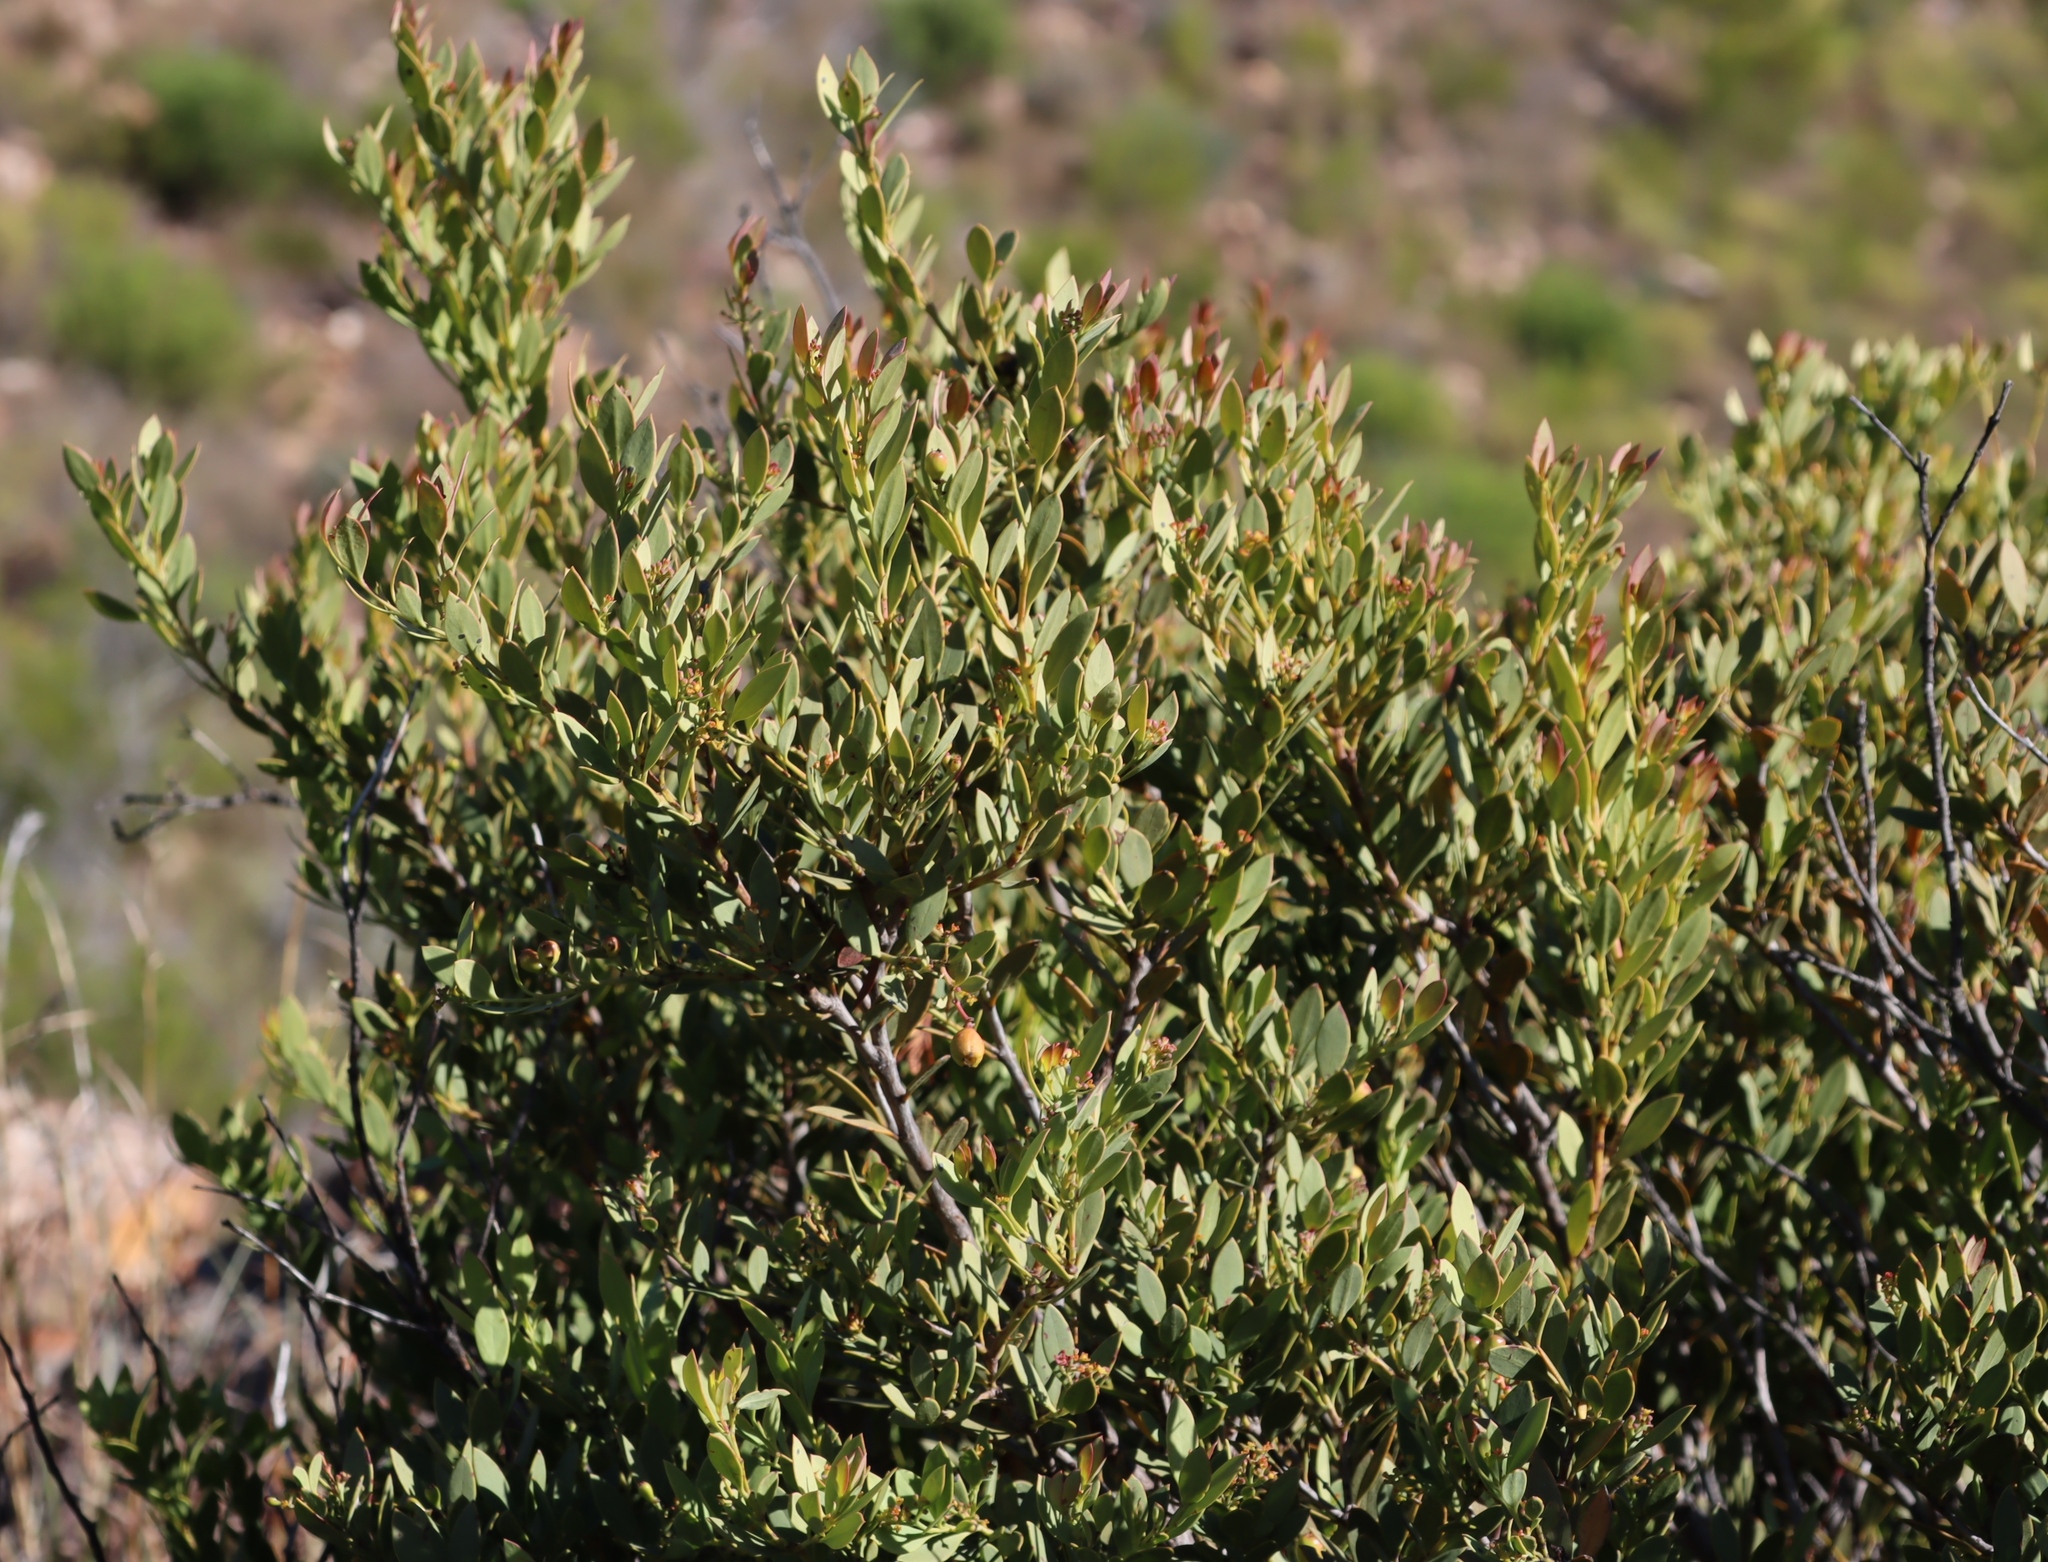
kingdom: Plantae
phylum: Tracheophyta
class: Magnoliopsida
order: Santalales
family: Santalaceae
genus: Osyris
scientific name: Osyris compressa
